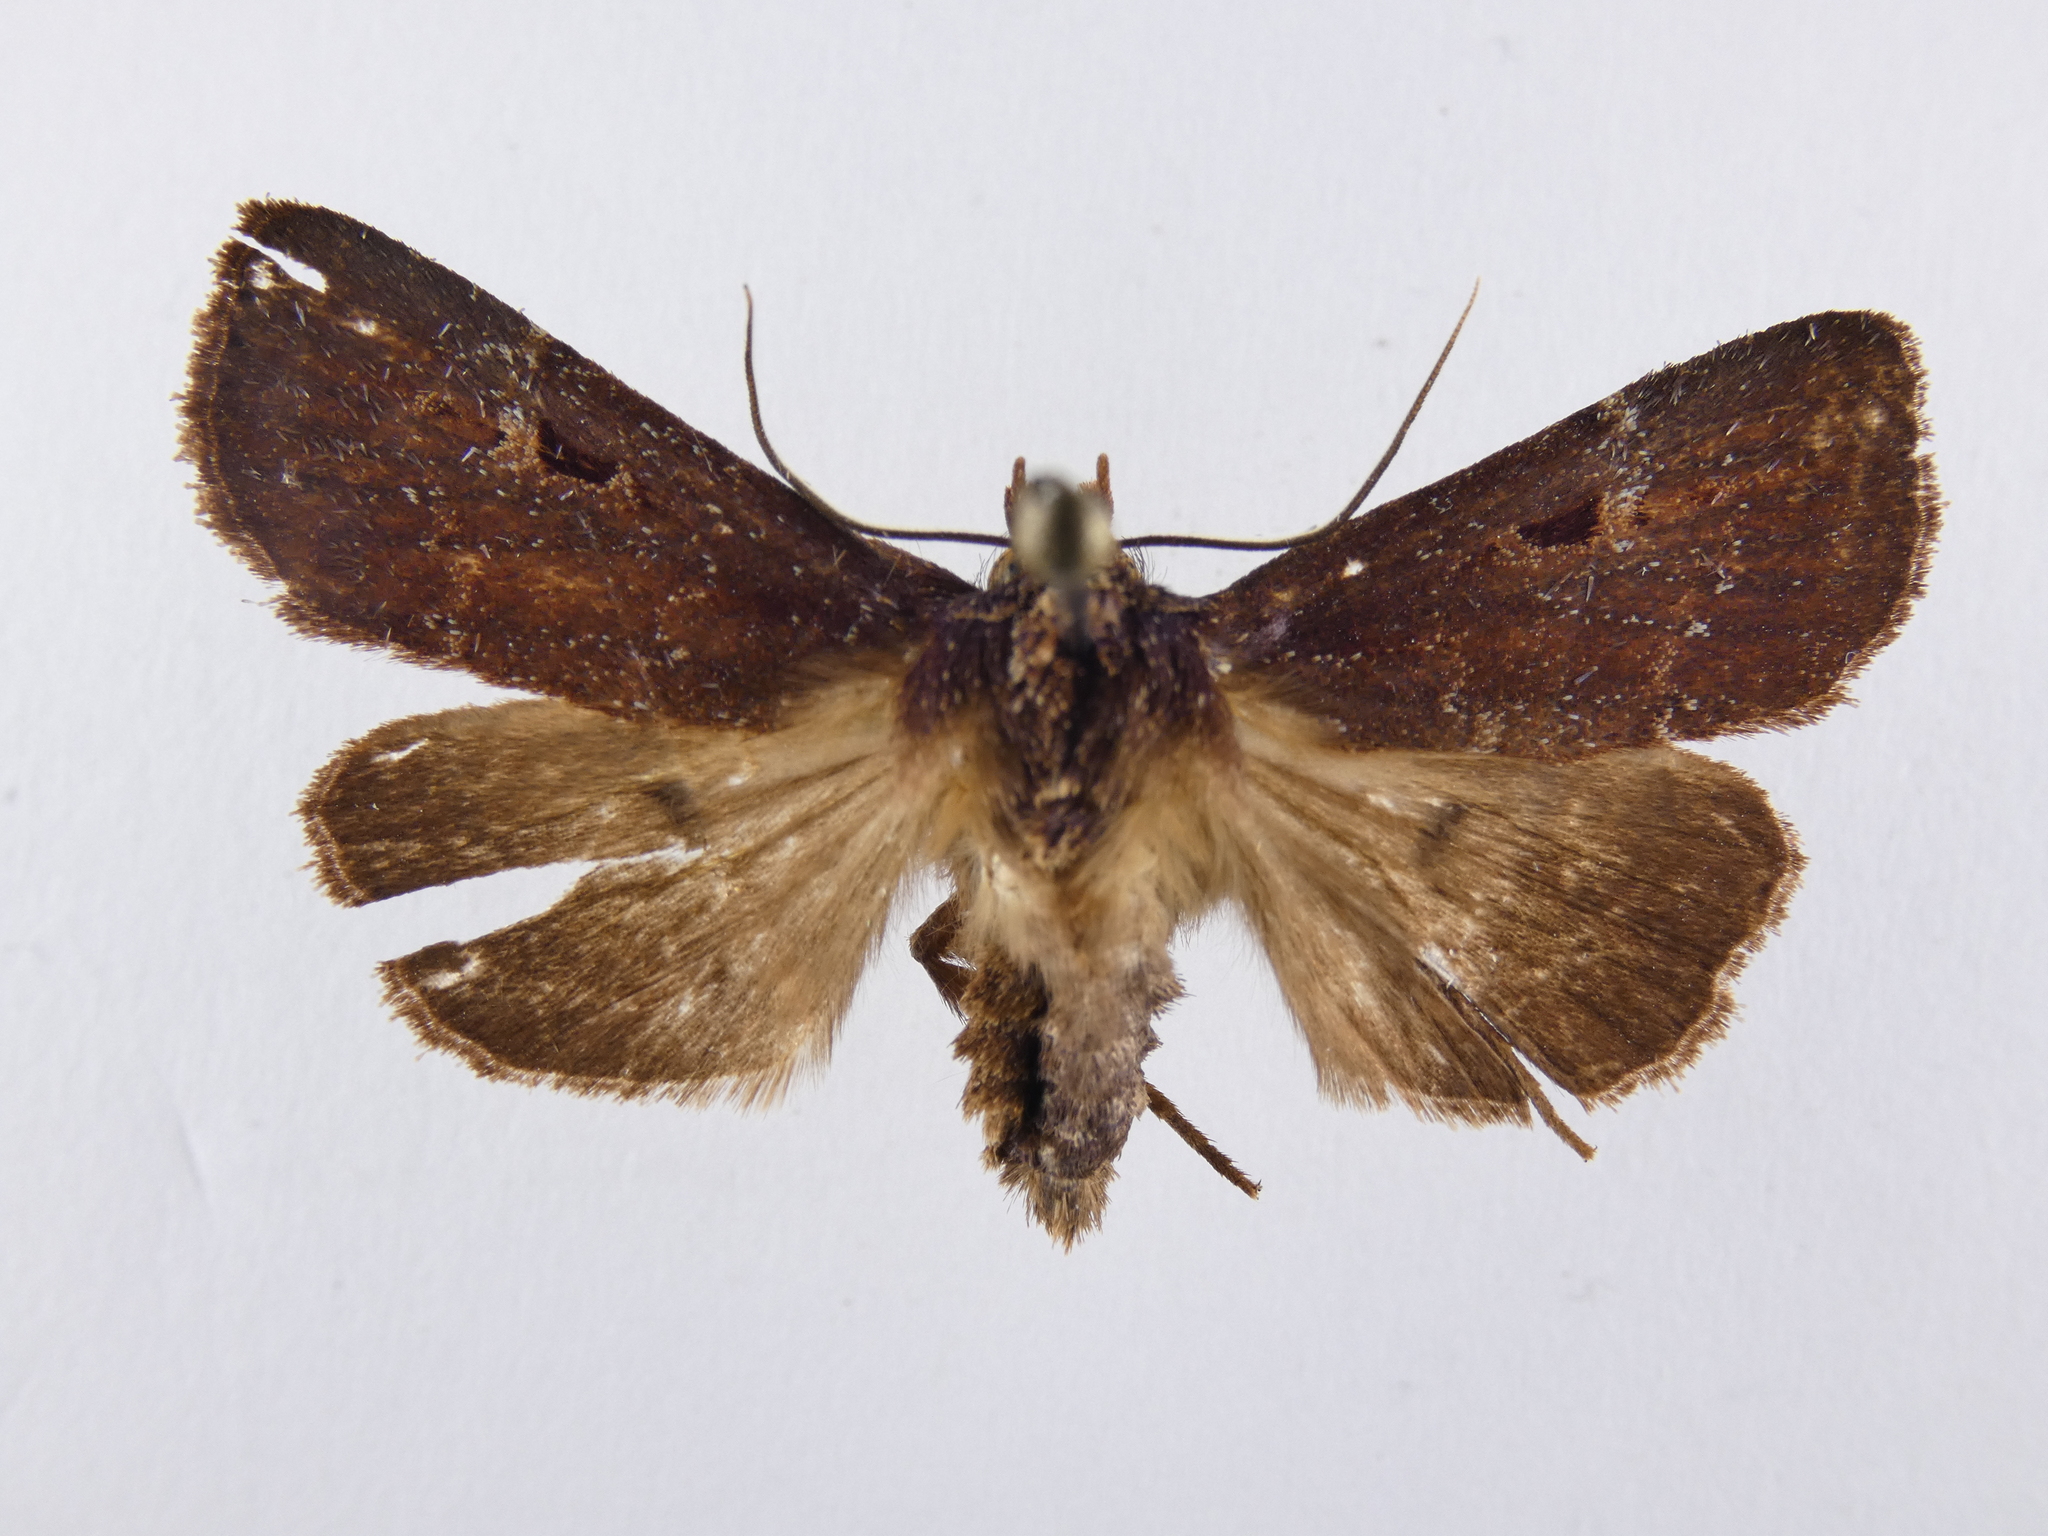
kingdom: Animalia
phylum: Arthropoda
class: Insecta
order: Lepidoptera
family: Noctuidae
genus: Austramathes
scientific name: Austramathes purpurea
